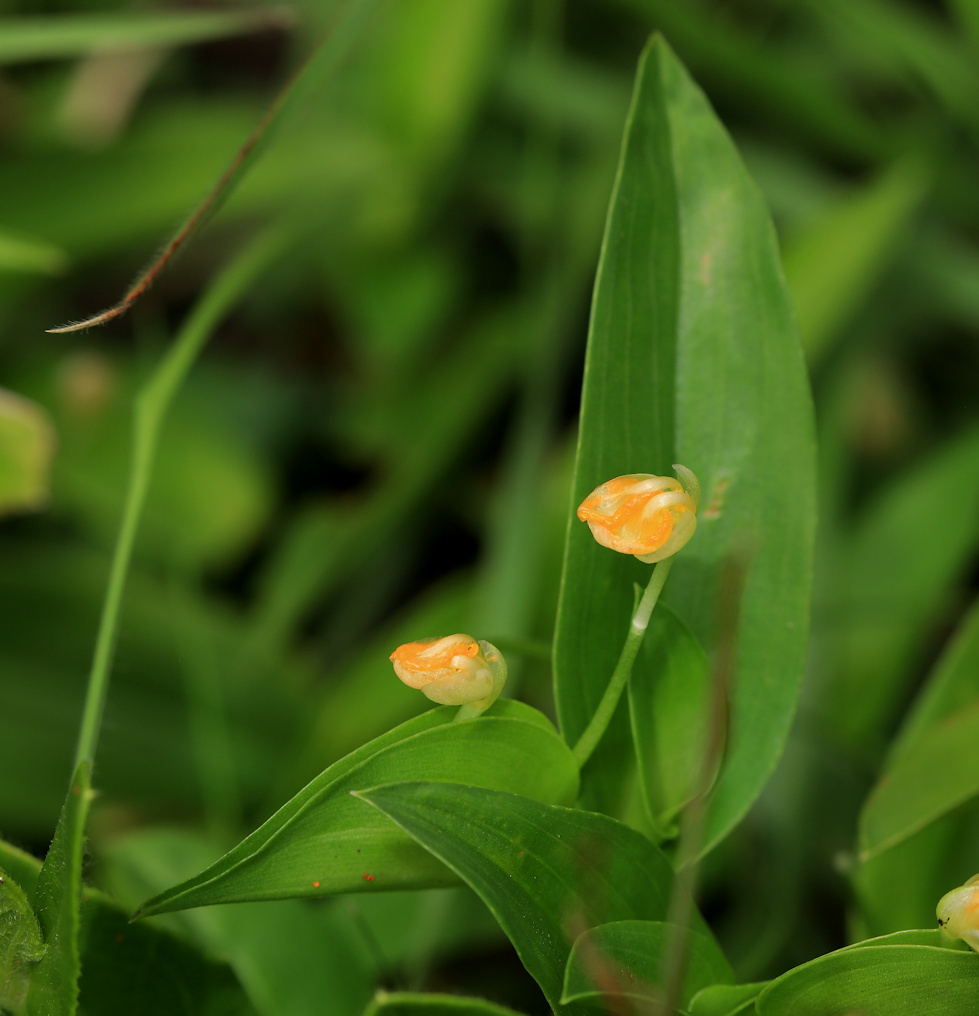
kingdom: Plantae
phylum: Tracheophyta
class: Liliopsida
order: Commelinales
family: Commelinaceae
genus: Commelina
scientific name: Commelina africana
